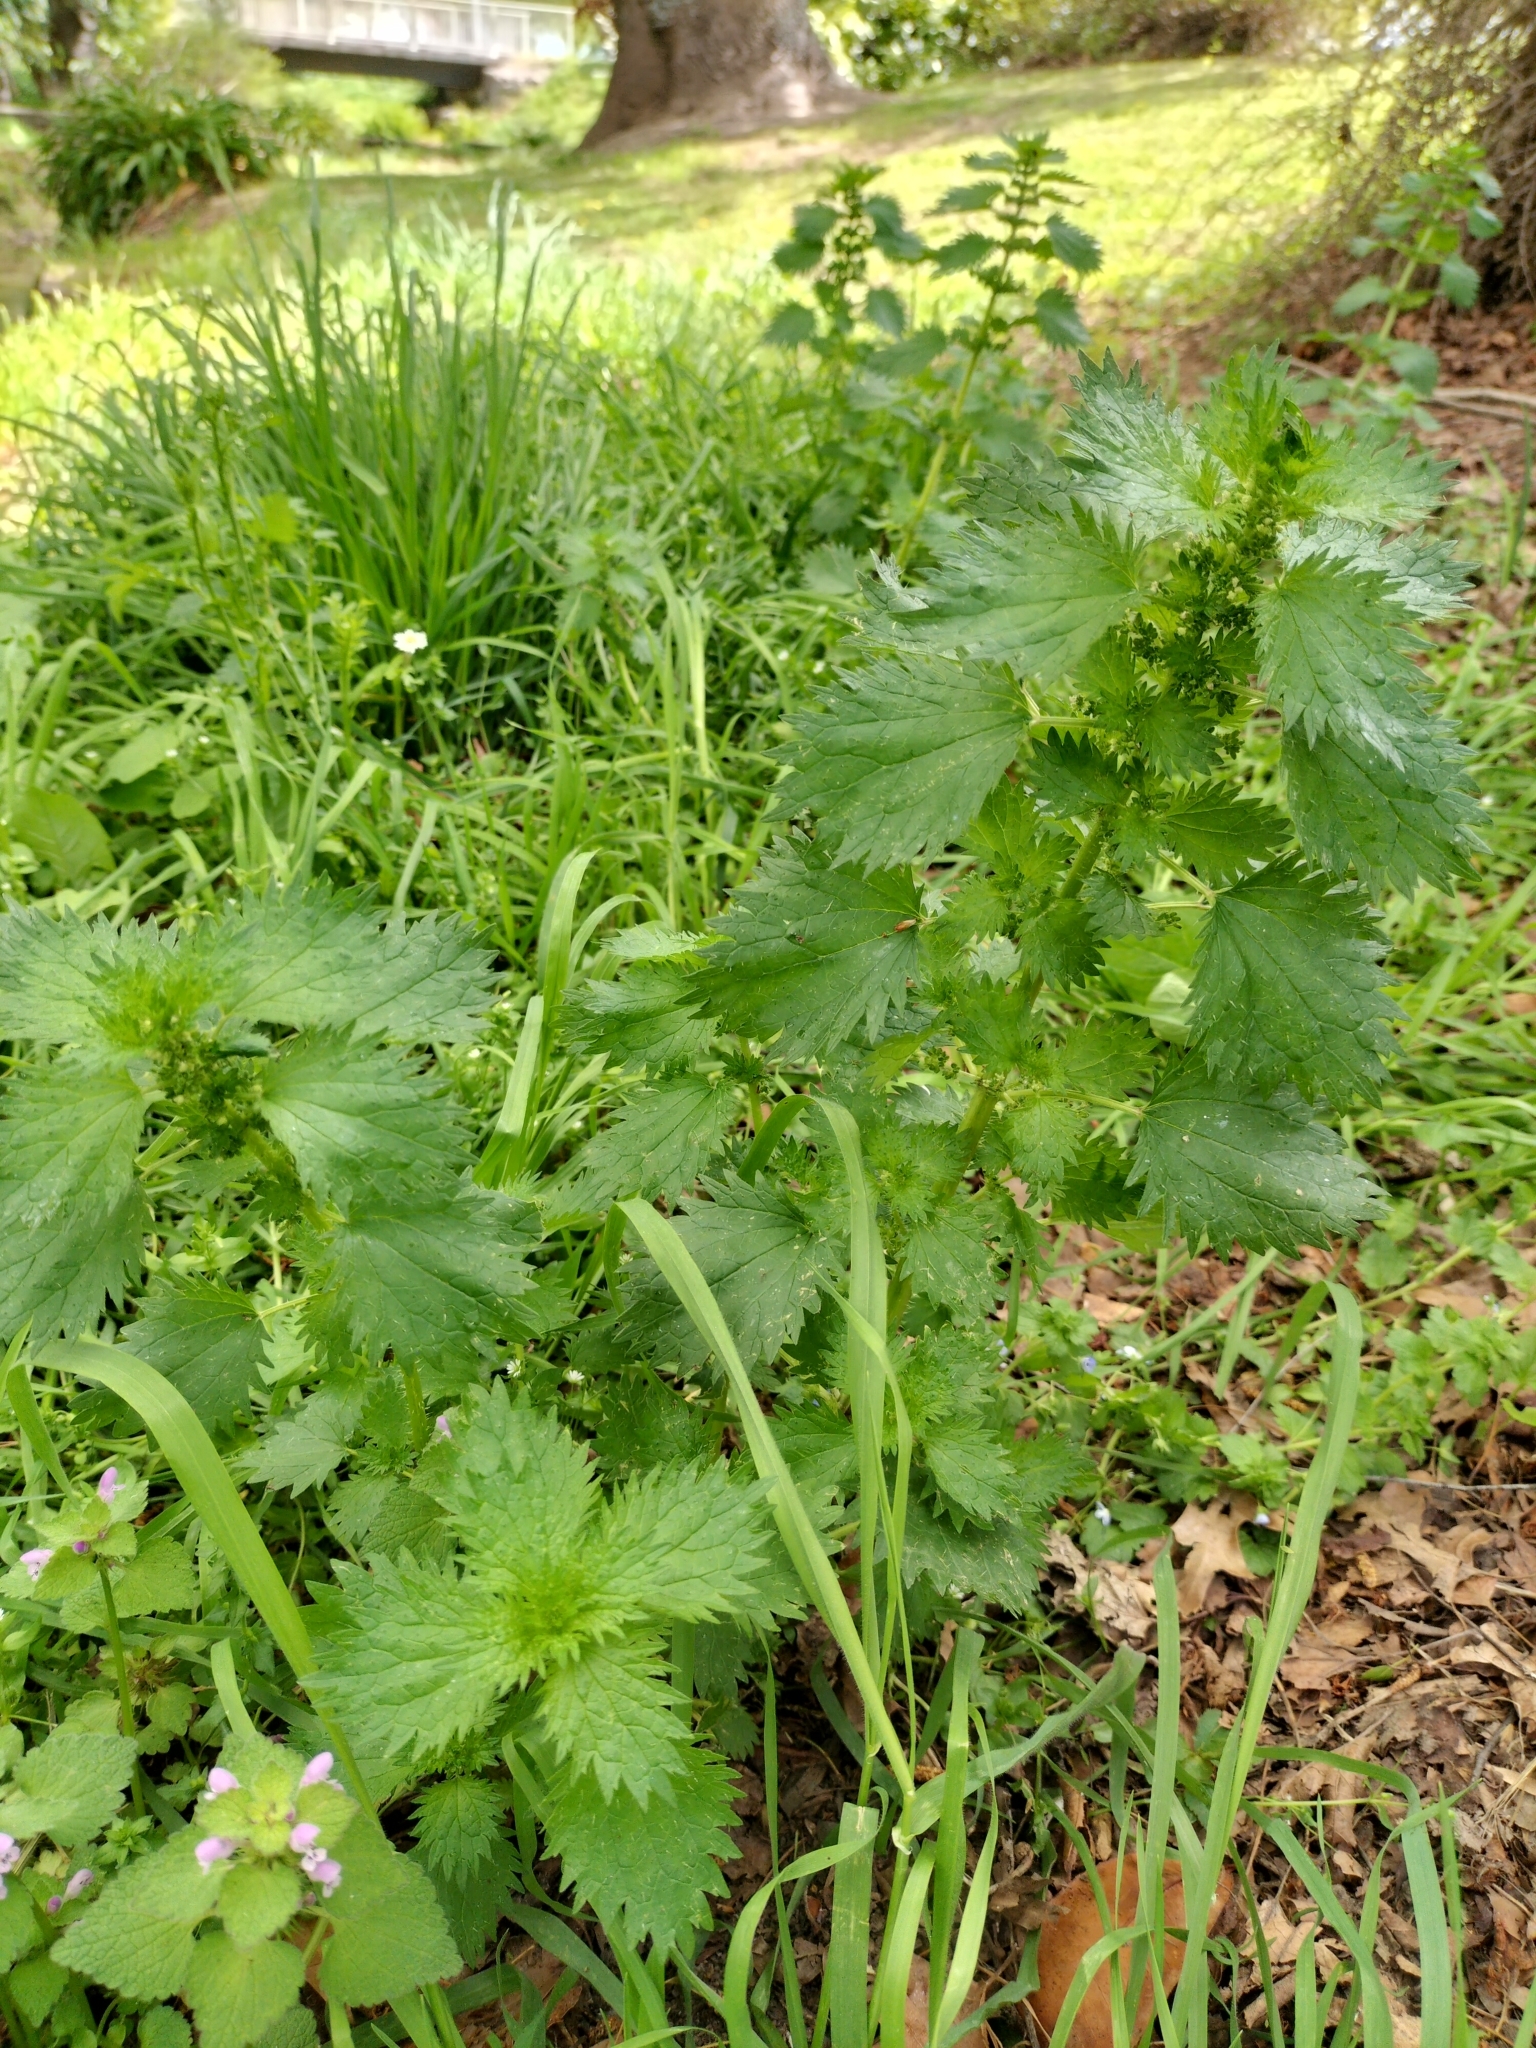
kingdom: Plantae
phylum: Tracheophyta
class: Magnoliopsida
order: Rosales
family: Urticaceae
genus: Urtica
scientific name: Urtica urens
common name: Dwarf nettle
